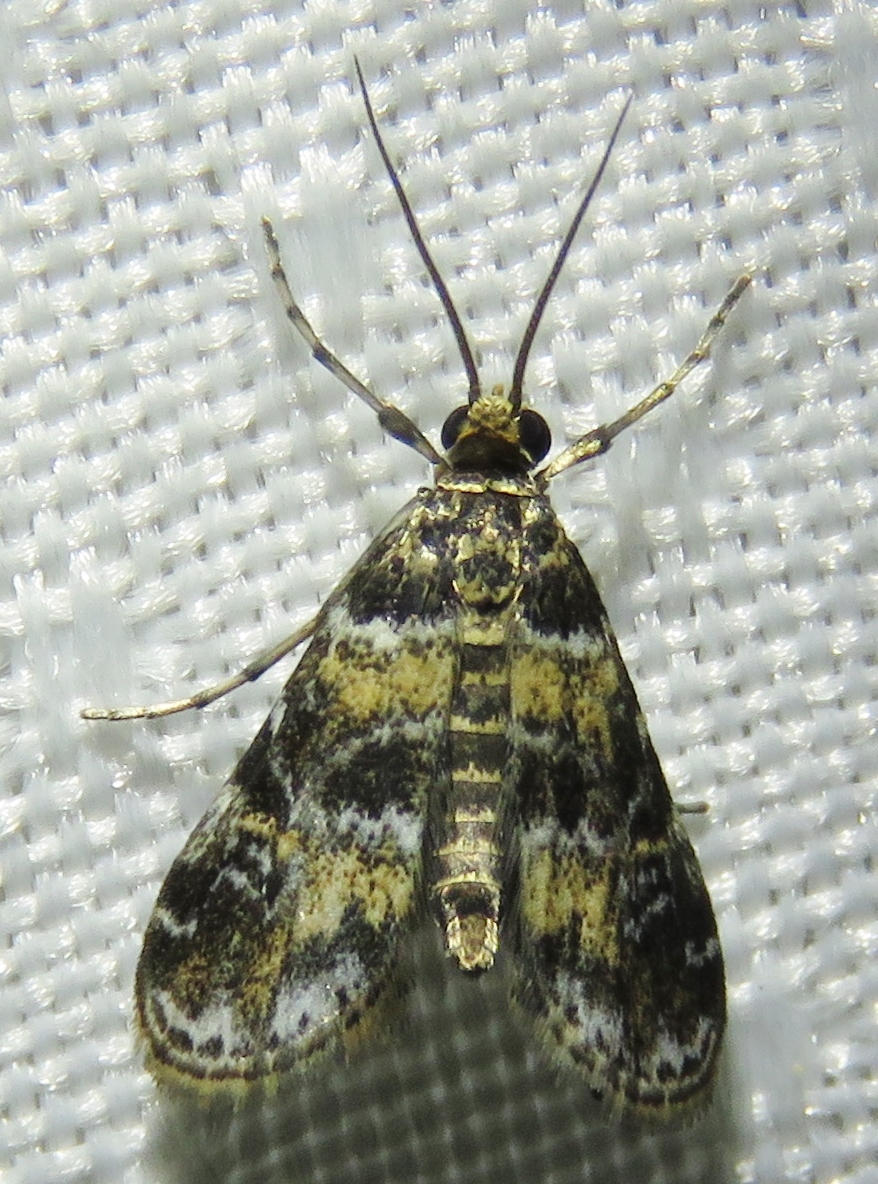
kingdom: Animalia
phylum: Arthropoda
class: Insecta
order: Lepidoptera
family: Crambidae
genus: Elophila
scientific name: Elophila obliteralis
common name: Waterlily leafcutter moth
